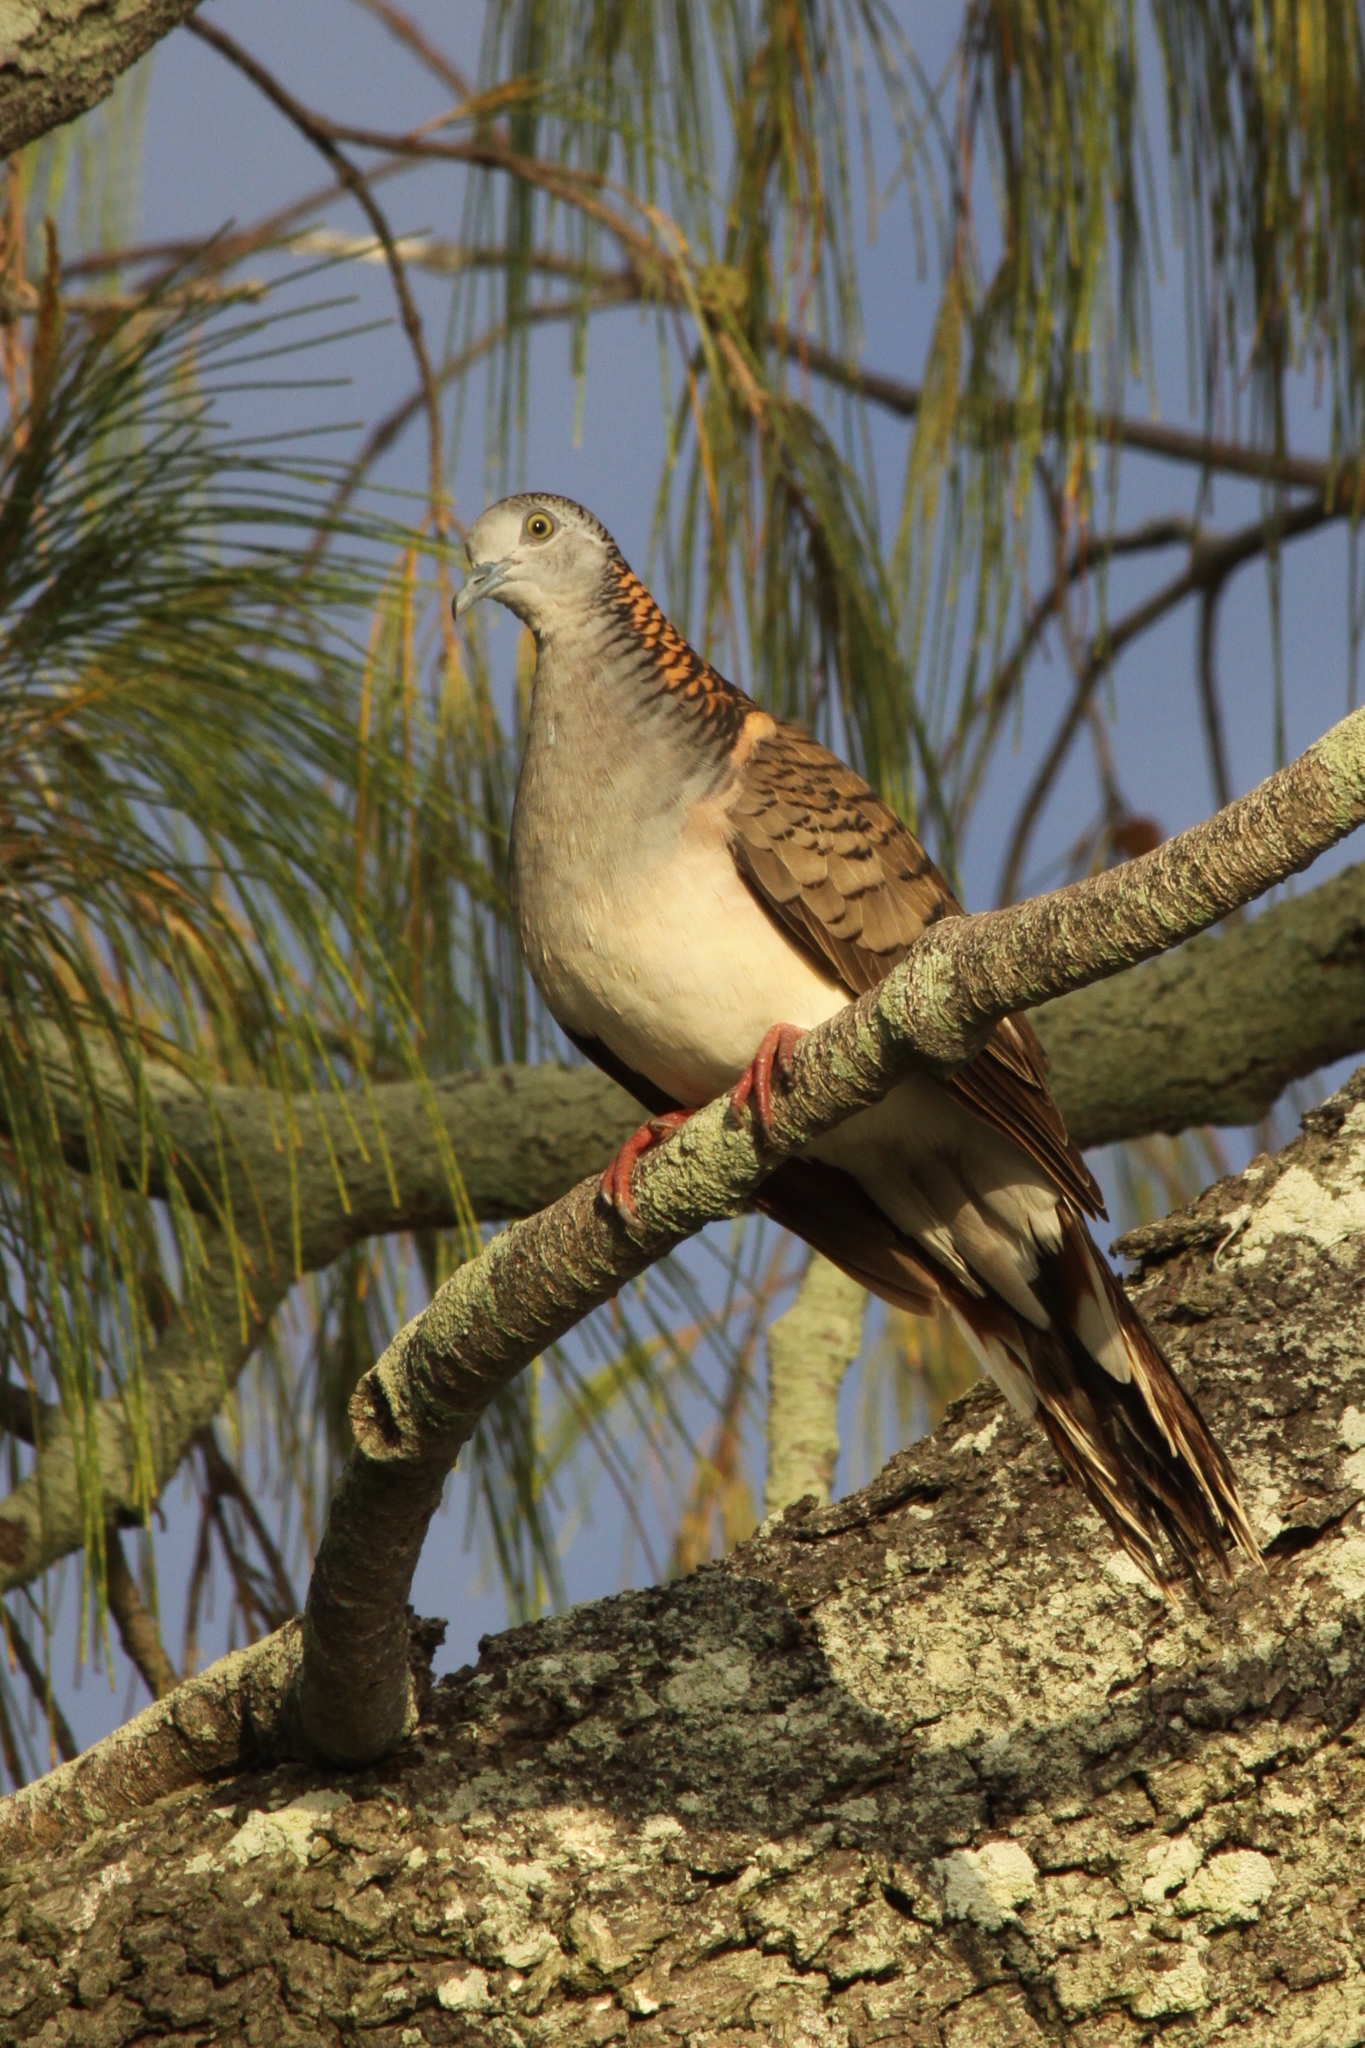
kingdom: Animalia
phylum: Chordata
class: Aves
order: Columbiformes
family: Columbidae
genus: Geopelia
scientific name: Geopelia humeralis
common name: Bar-shouldered dove
